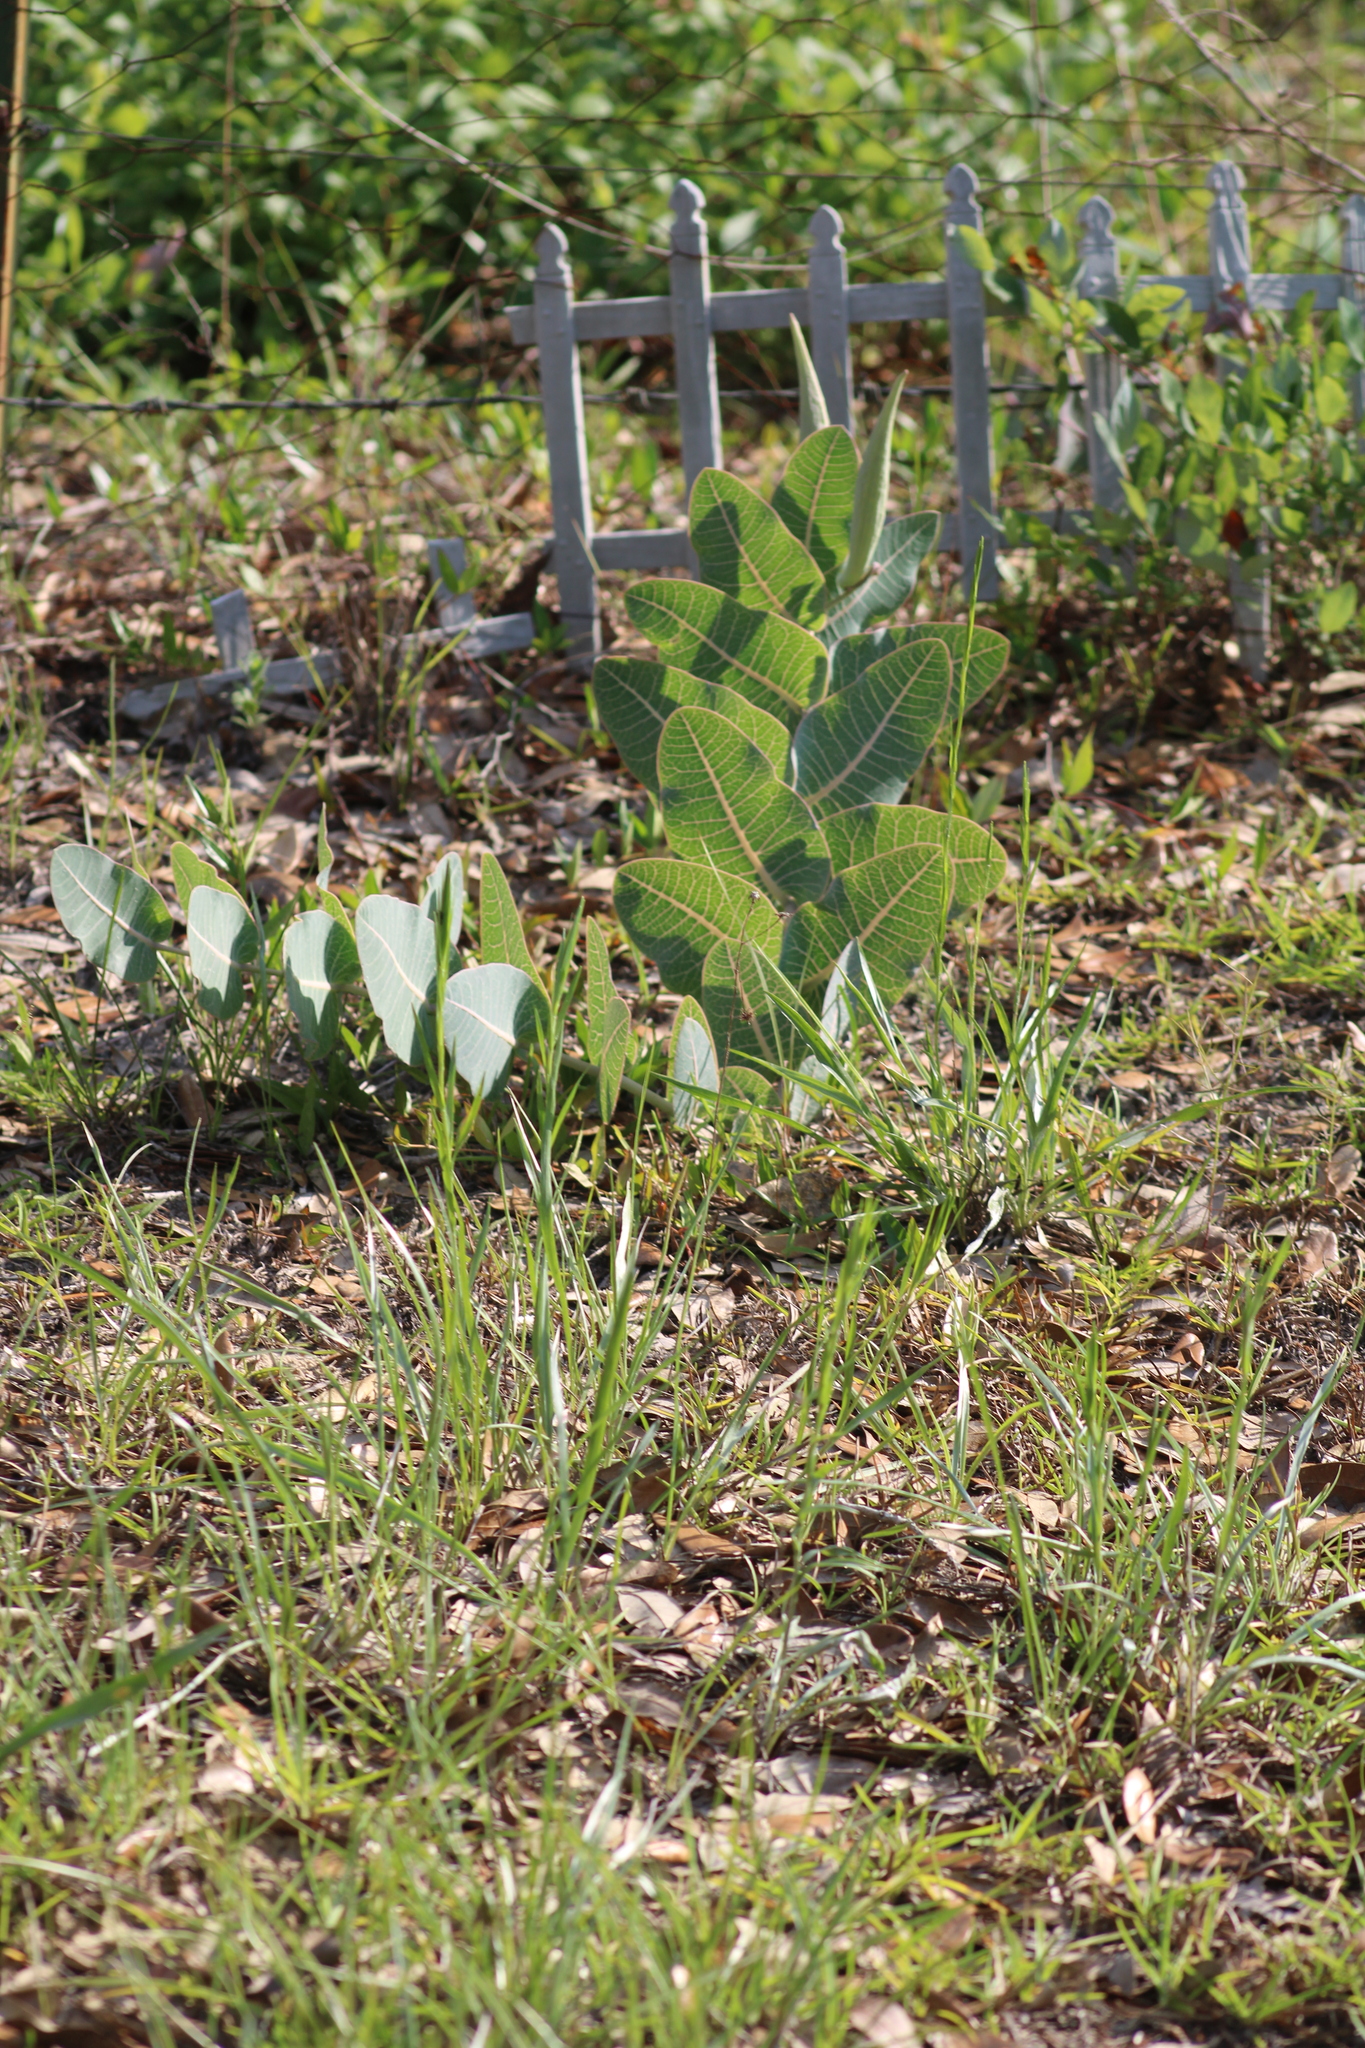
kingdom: Plantae
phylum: Tracheophyta
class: Magnoliopsida
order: Gentianales
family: Apocynaceae
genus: Asclepias
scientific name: Asclepias humistrata
